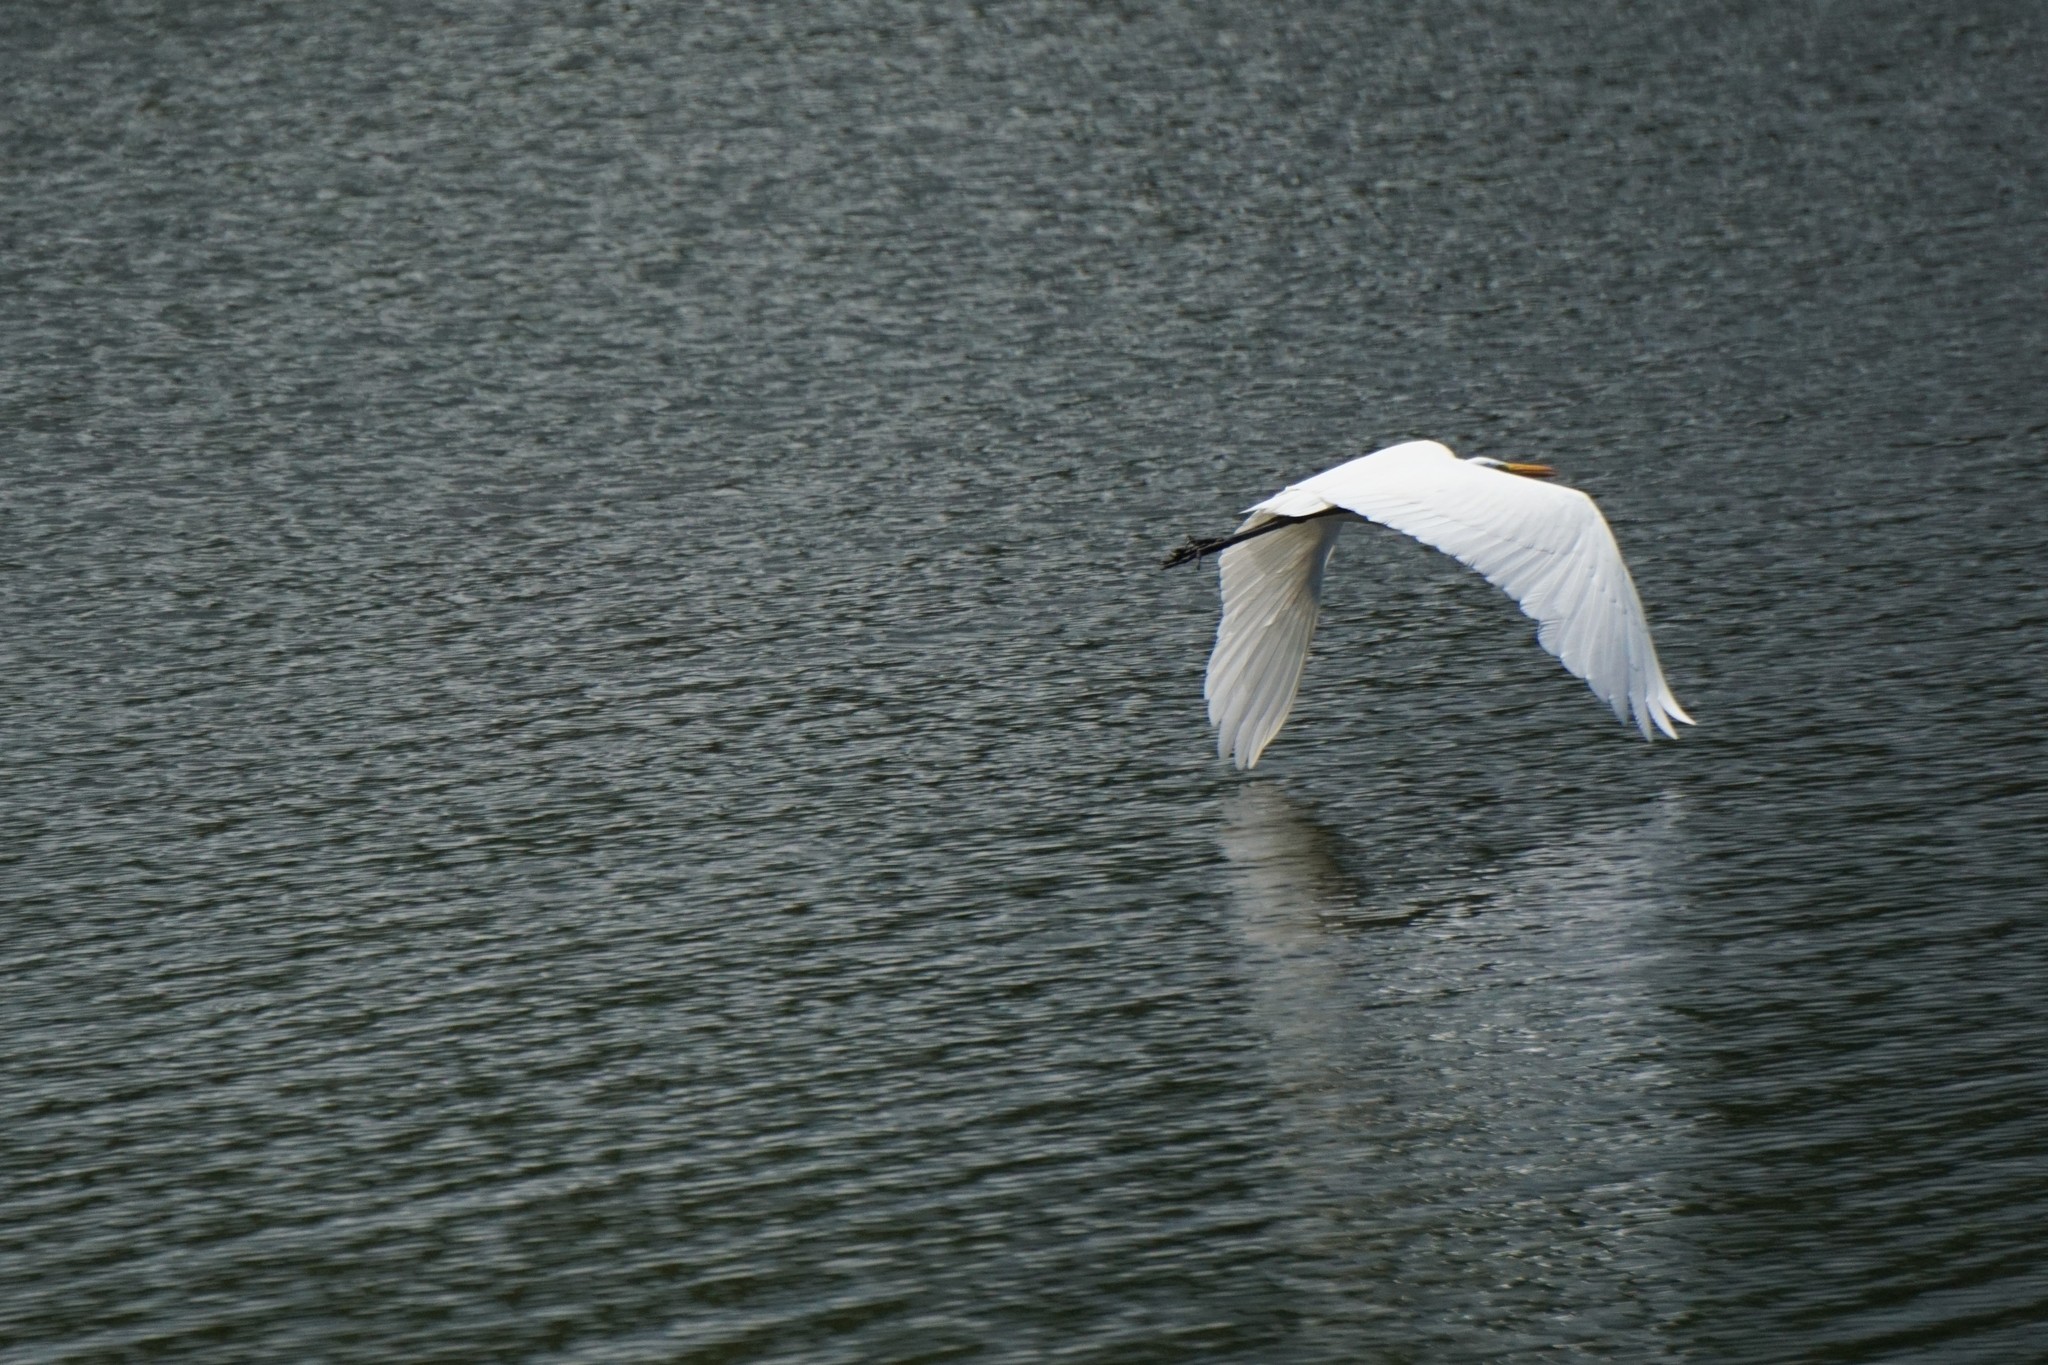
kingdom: Animalia
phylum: Chordata
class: Aves
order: Pelecaniformes
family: Ardeidae
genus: Ardea
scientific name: Ardea alba
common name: Great egret
